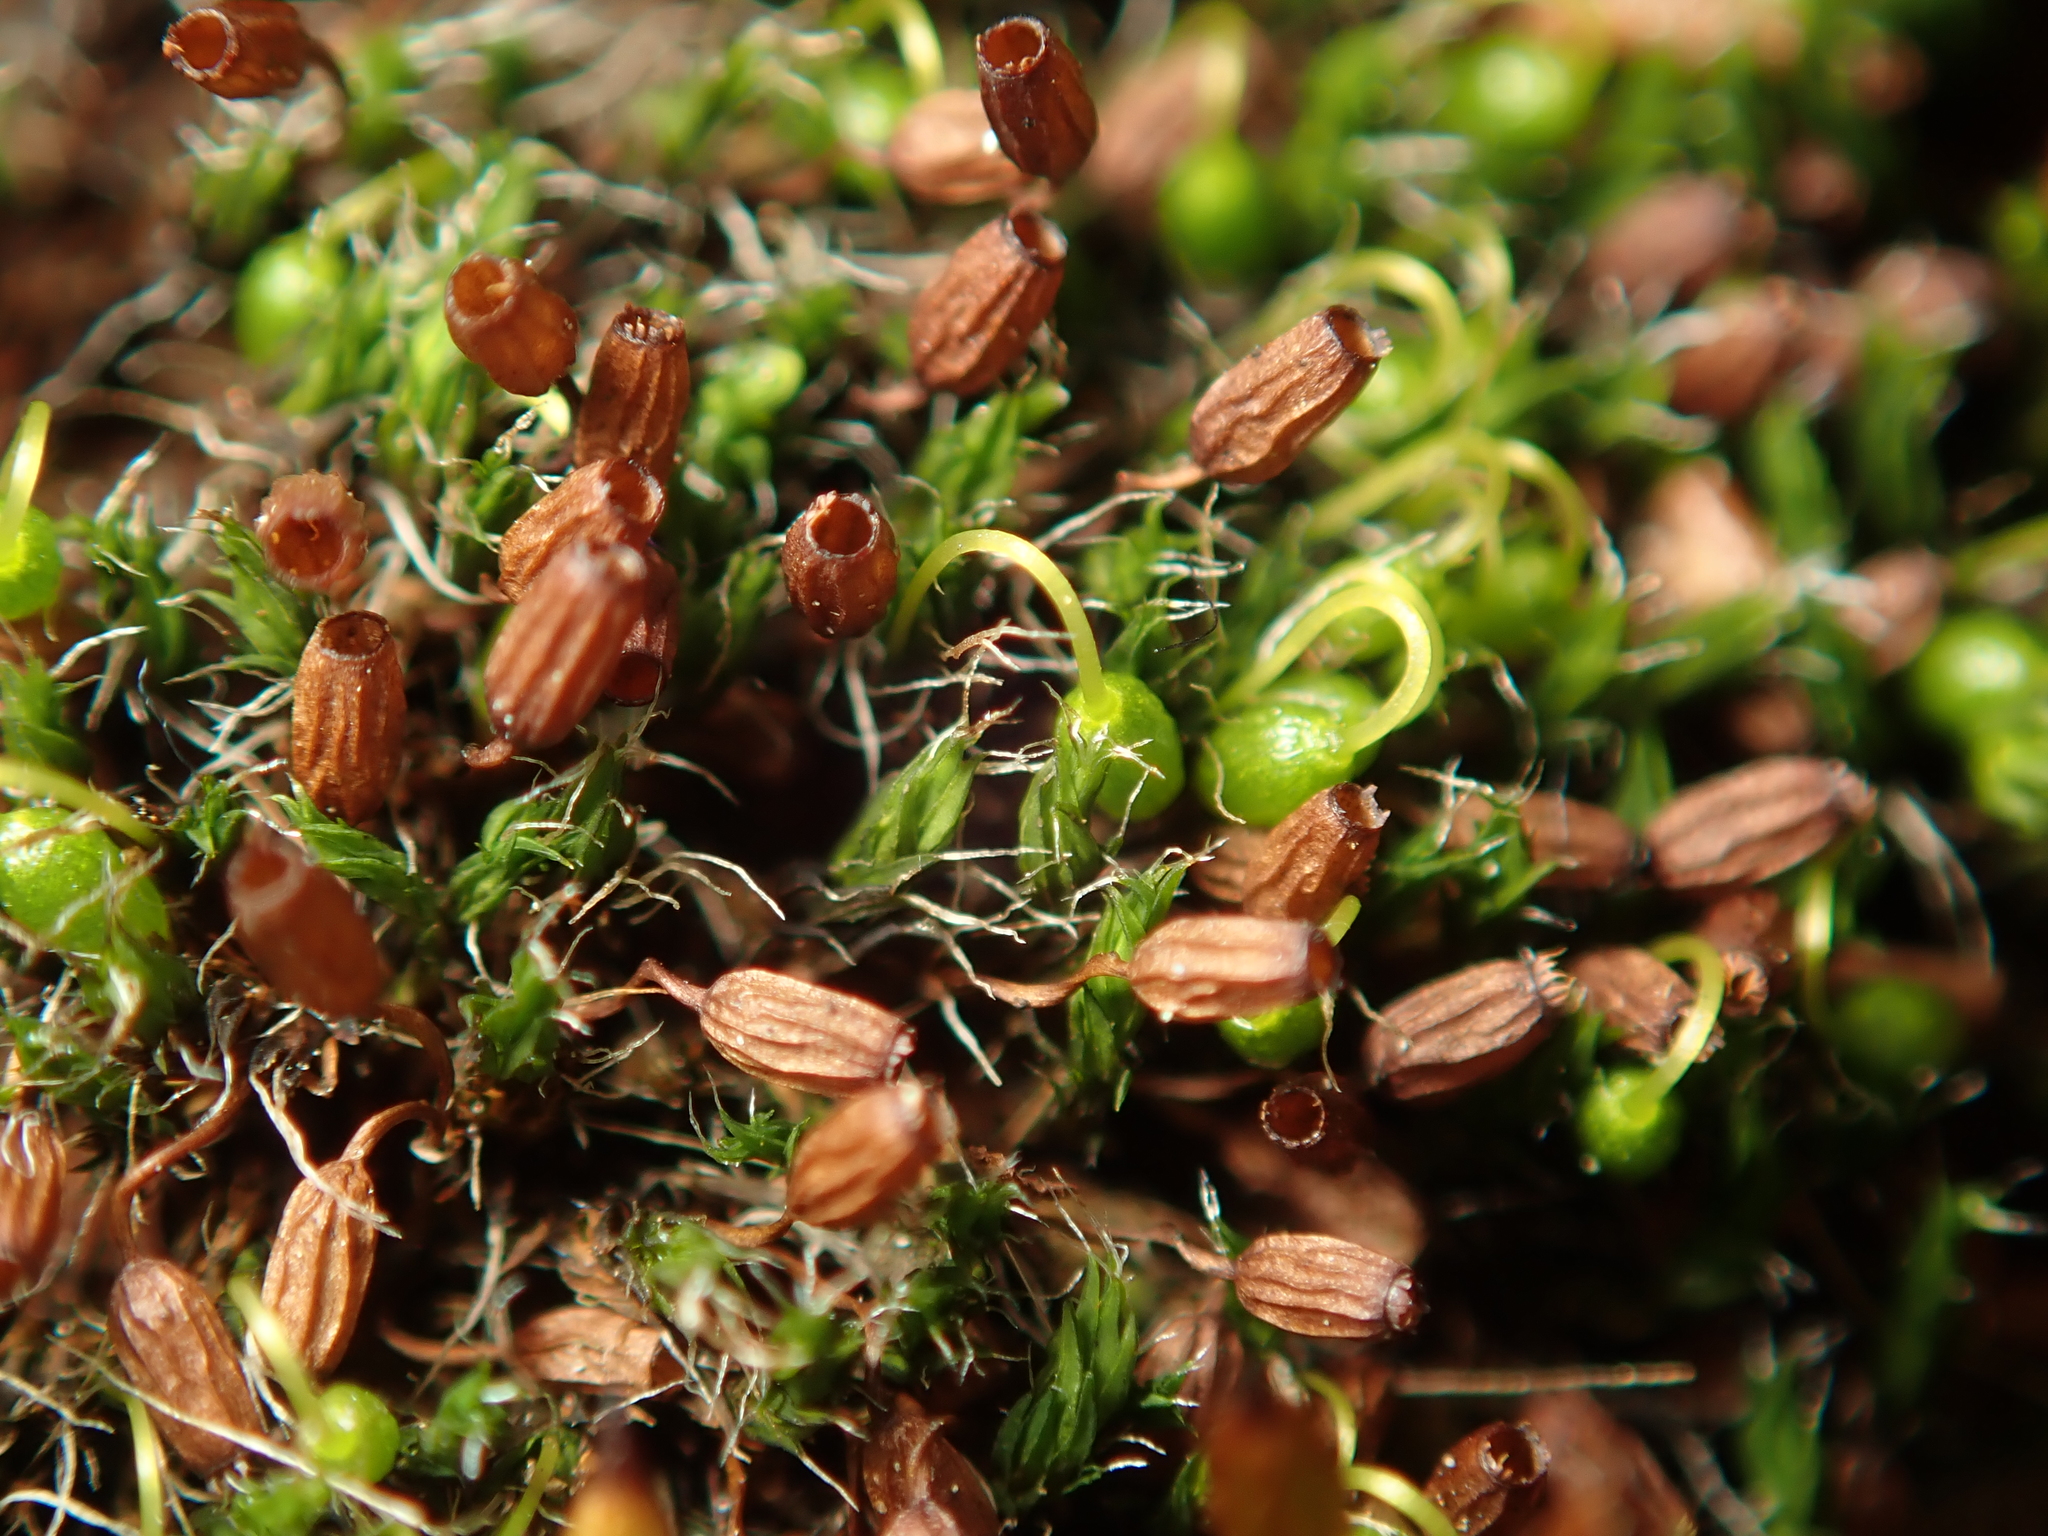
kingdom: Plantae
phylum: Bryophyta
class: Bryopsida
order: Grimmiales
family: Grimmiaceae
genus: Grimmia
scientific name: Grimmia pulvinata
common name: Grey-cushioned grimmia
